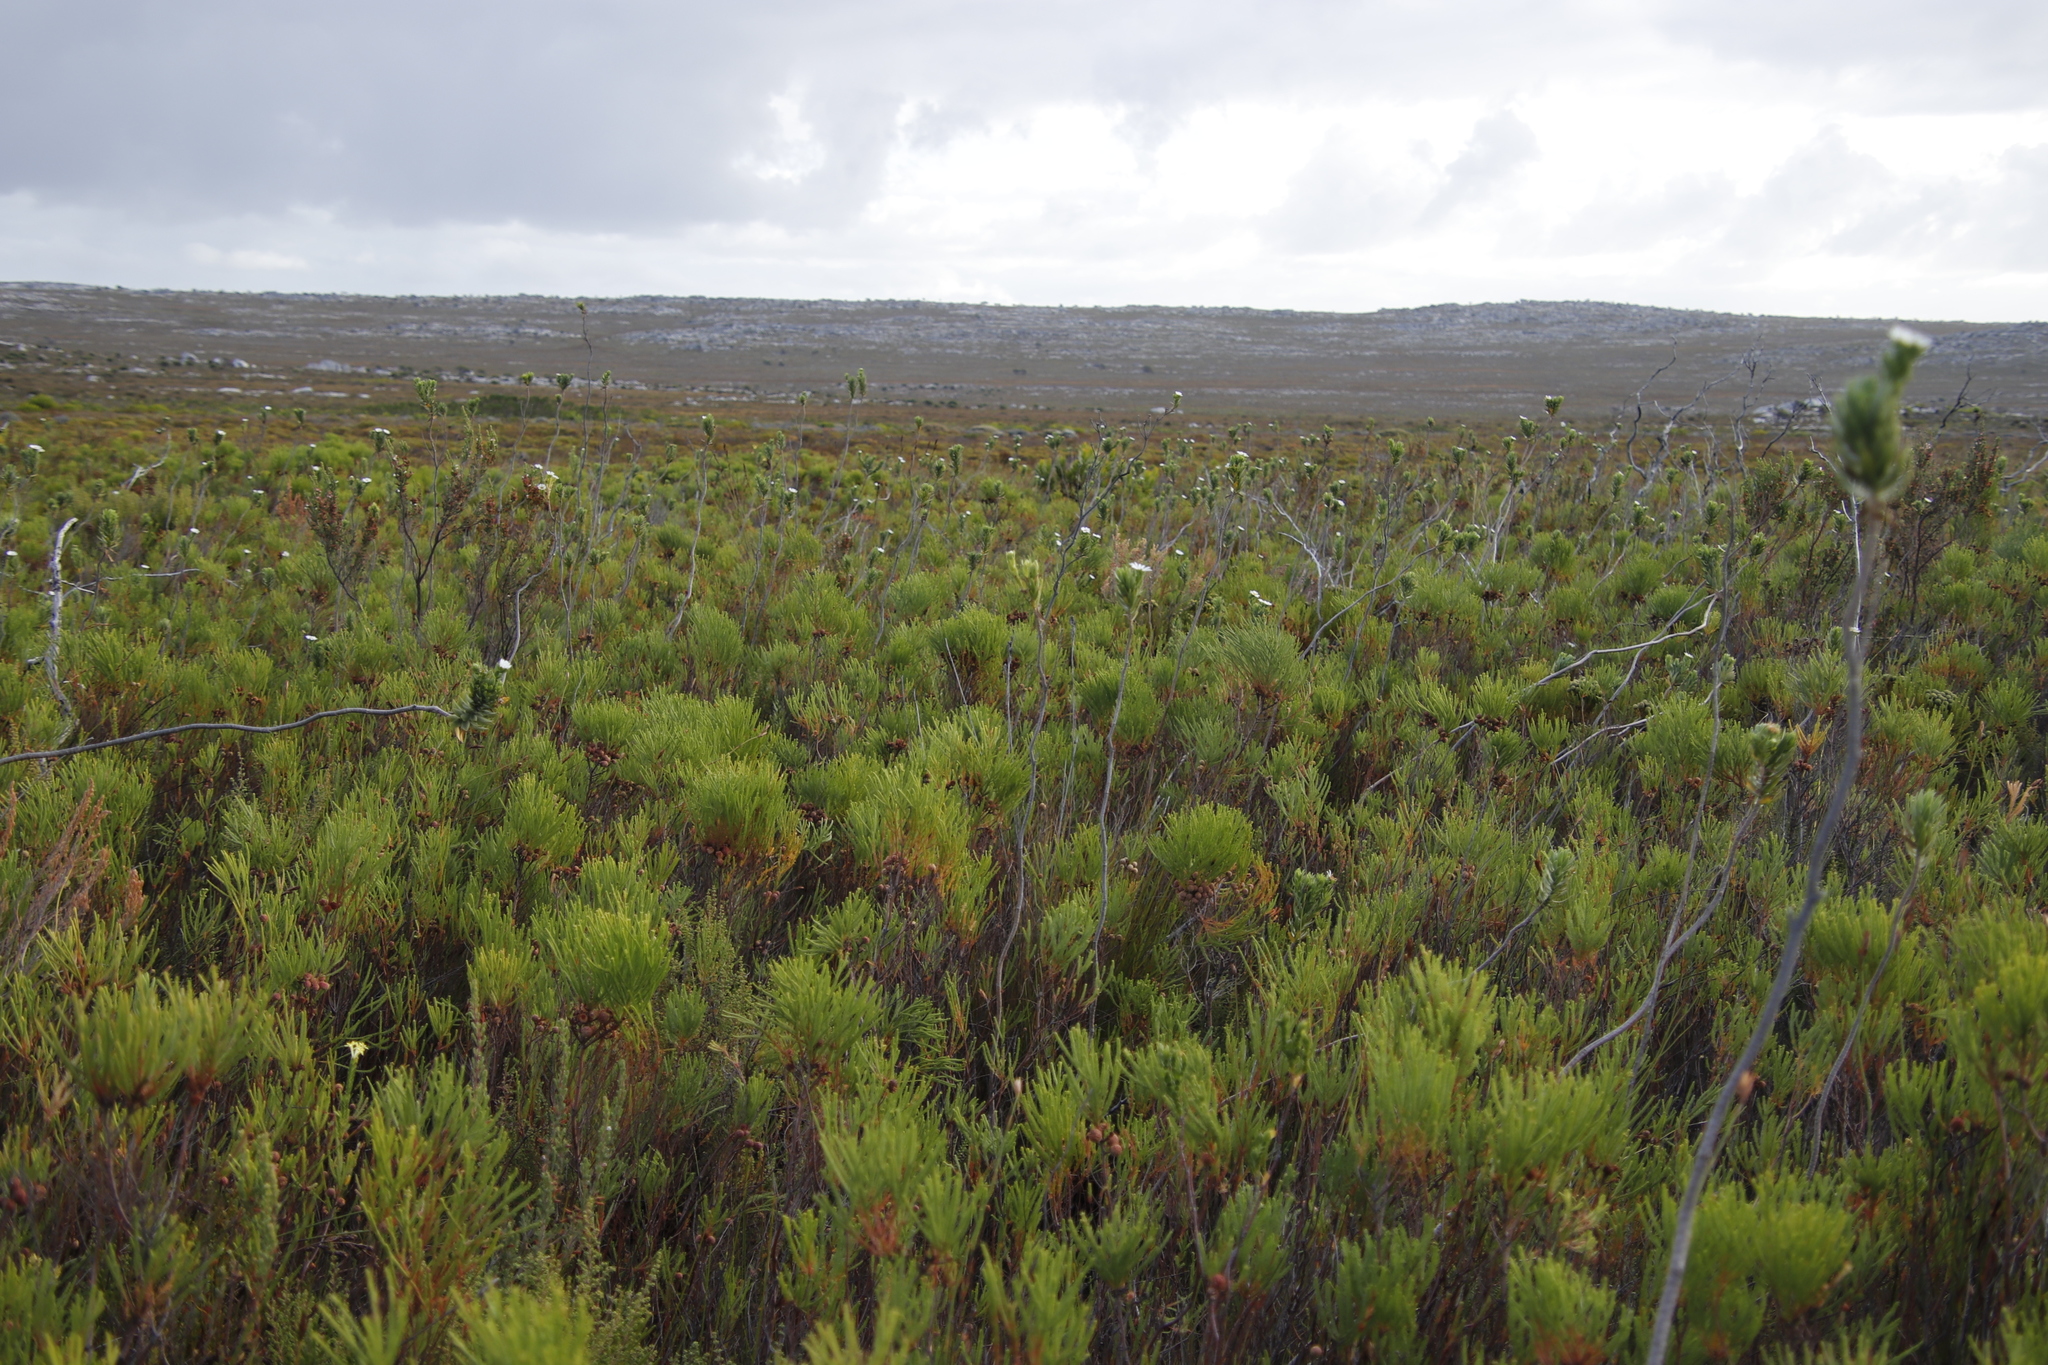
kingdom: Plantae
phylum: Tracheophyta
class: Magnoliopsida
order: Bruniales
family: Bruniaceae
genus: Berzelia
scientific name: Berzelia lanuginosa
